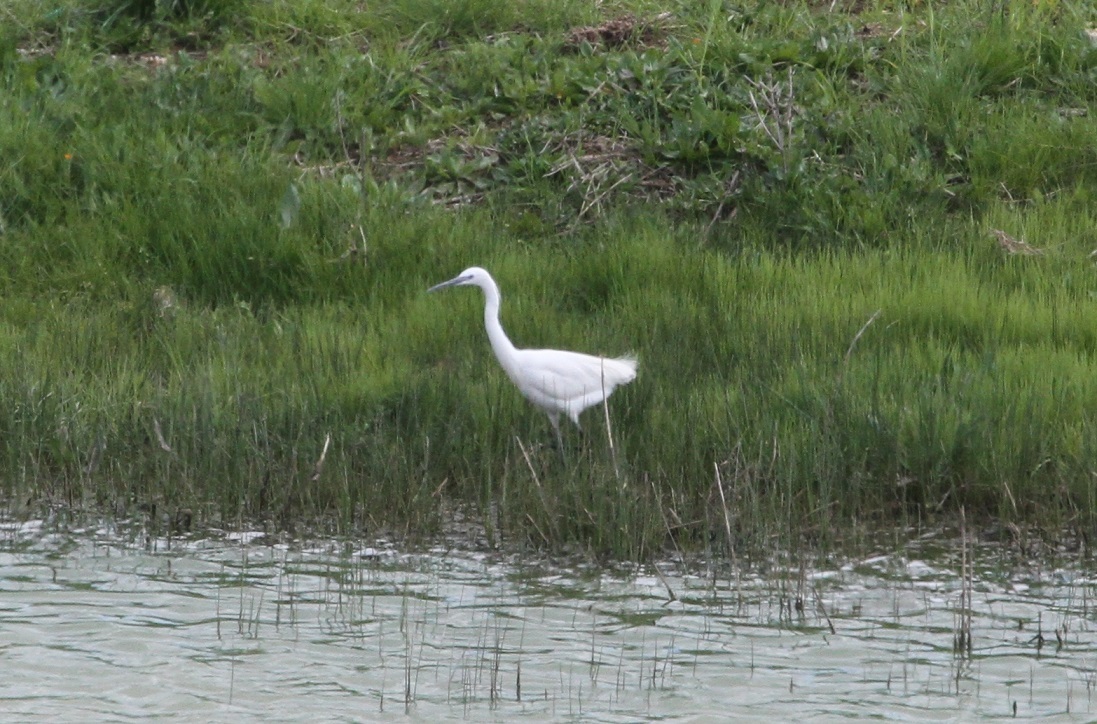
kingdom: Animalia
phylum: Chordata
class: Aves
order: Pelecaniformes
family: Ardeidae
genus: Egretta
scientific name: Egretta garzetta
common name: Little egret
